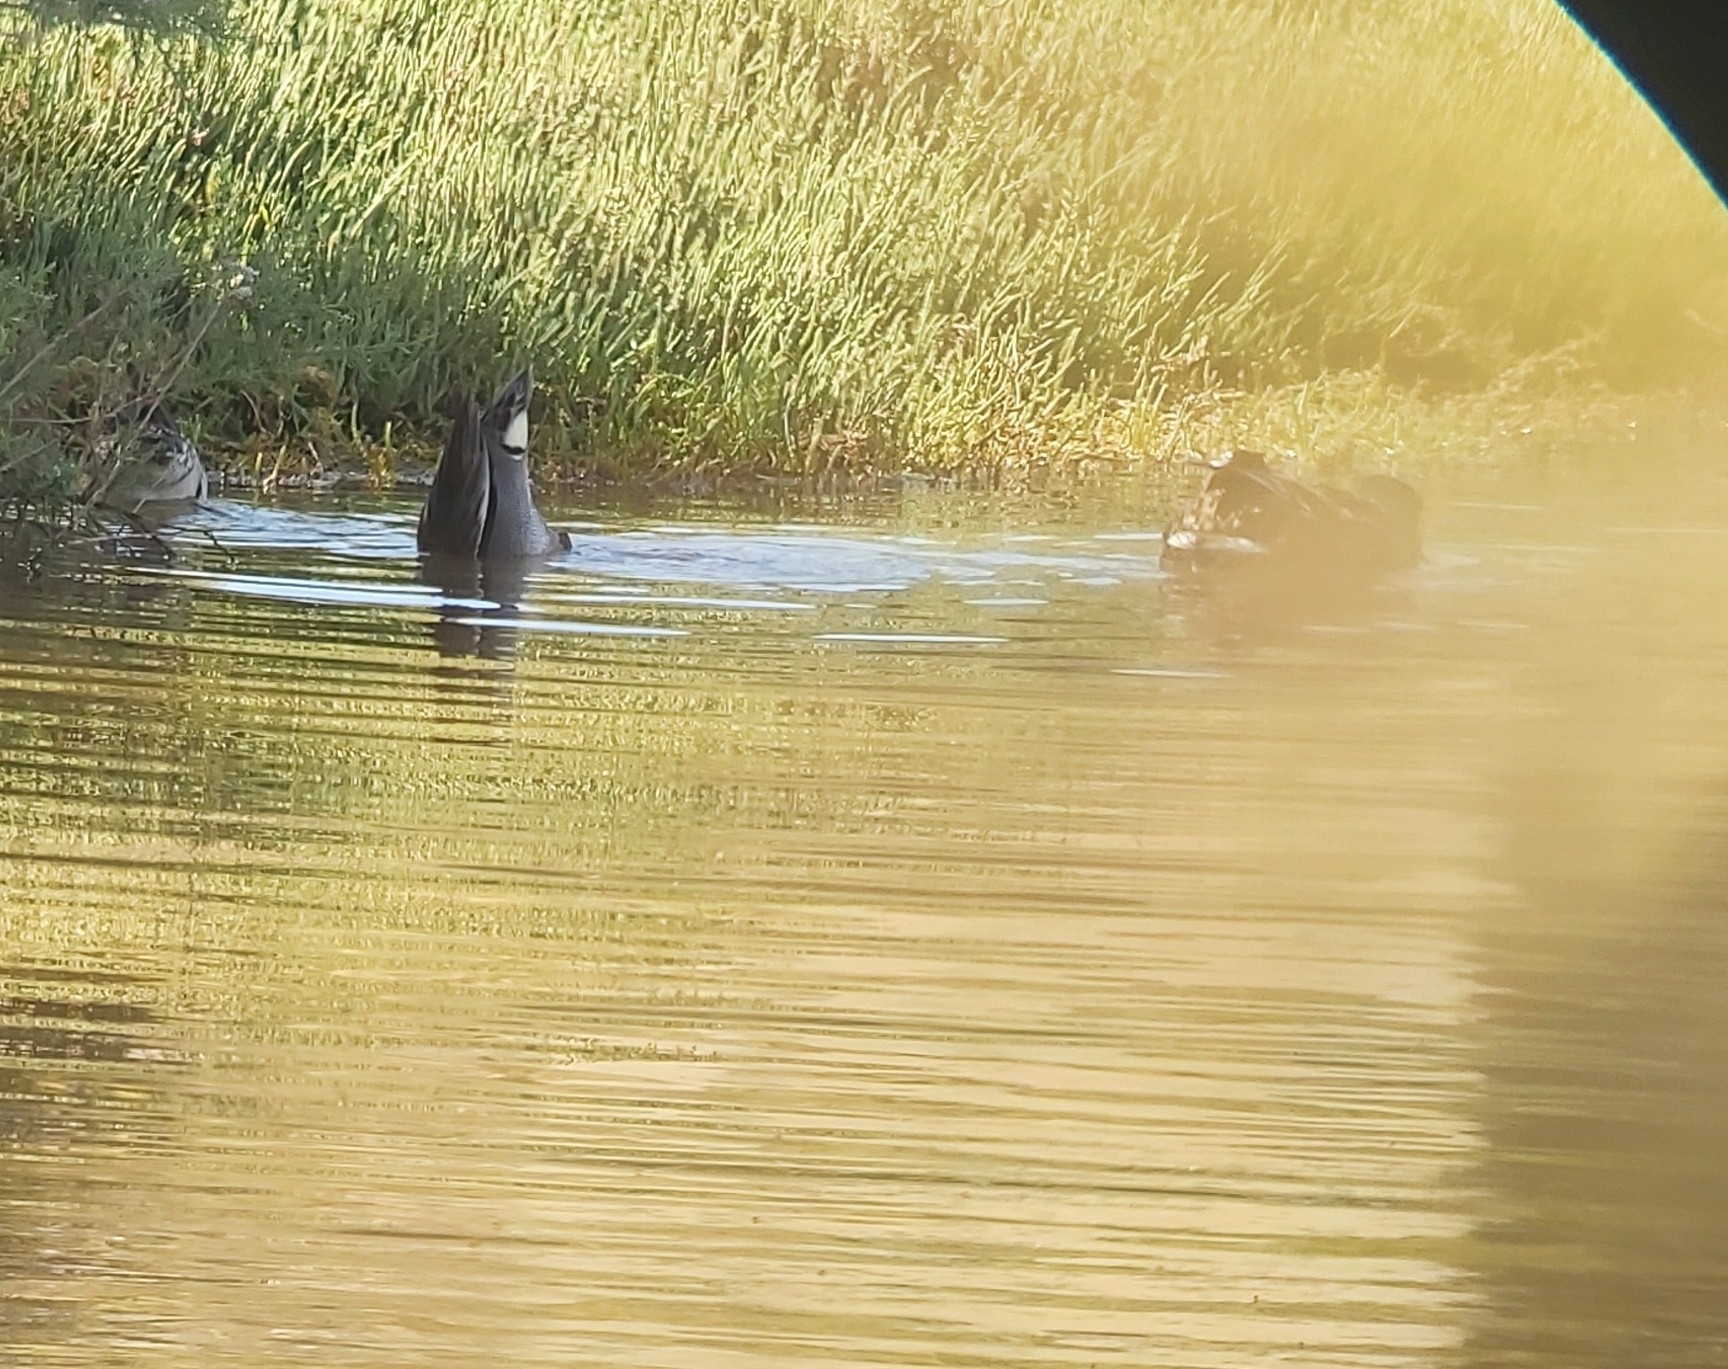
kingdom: Animalia
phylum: Chordata
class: Aves
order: Anseriformes
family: Anatidae
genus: Anas
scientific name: Anas crecca
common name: Eurasian teal
